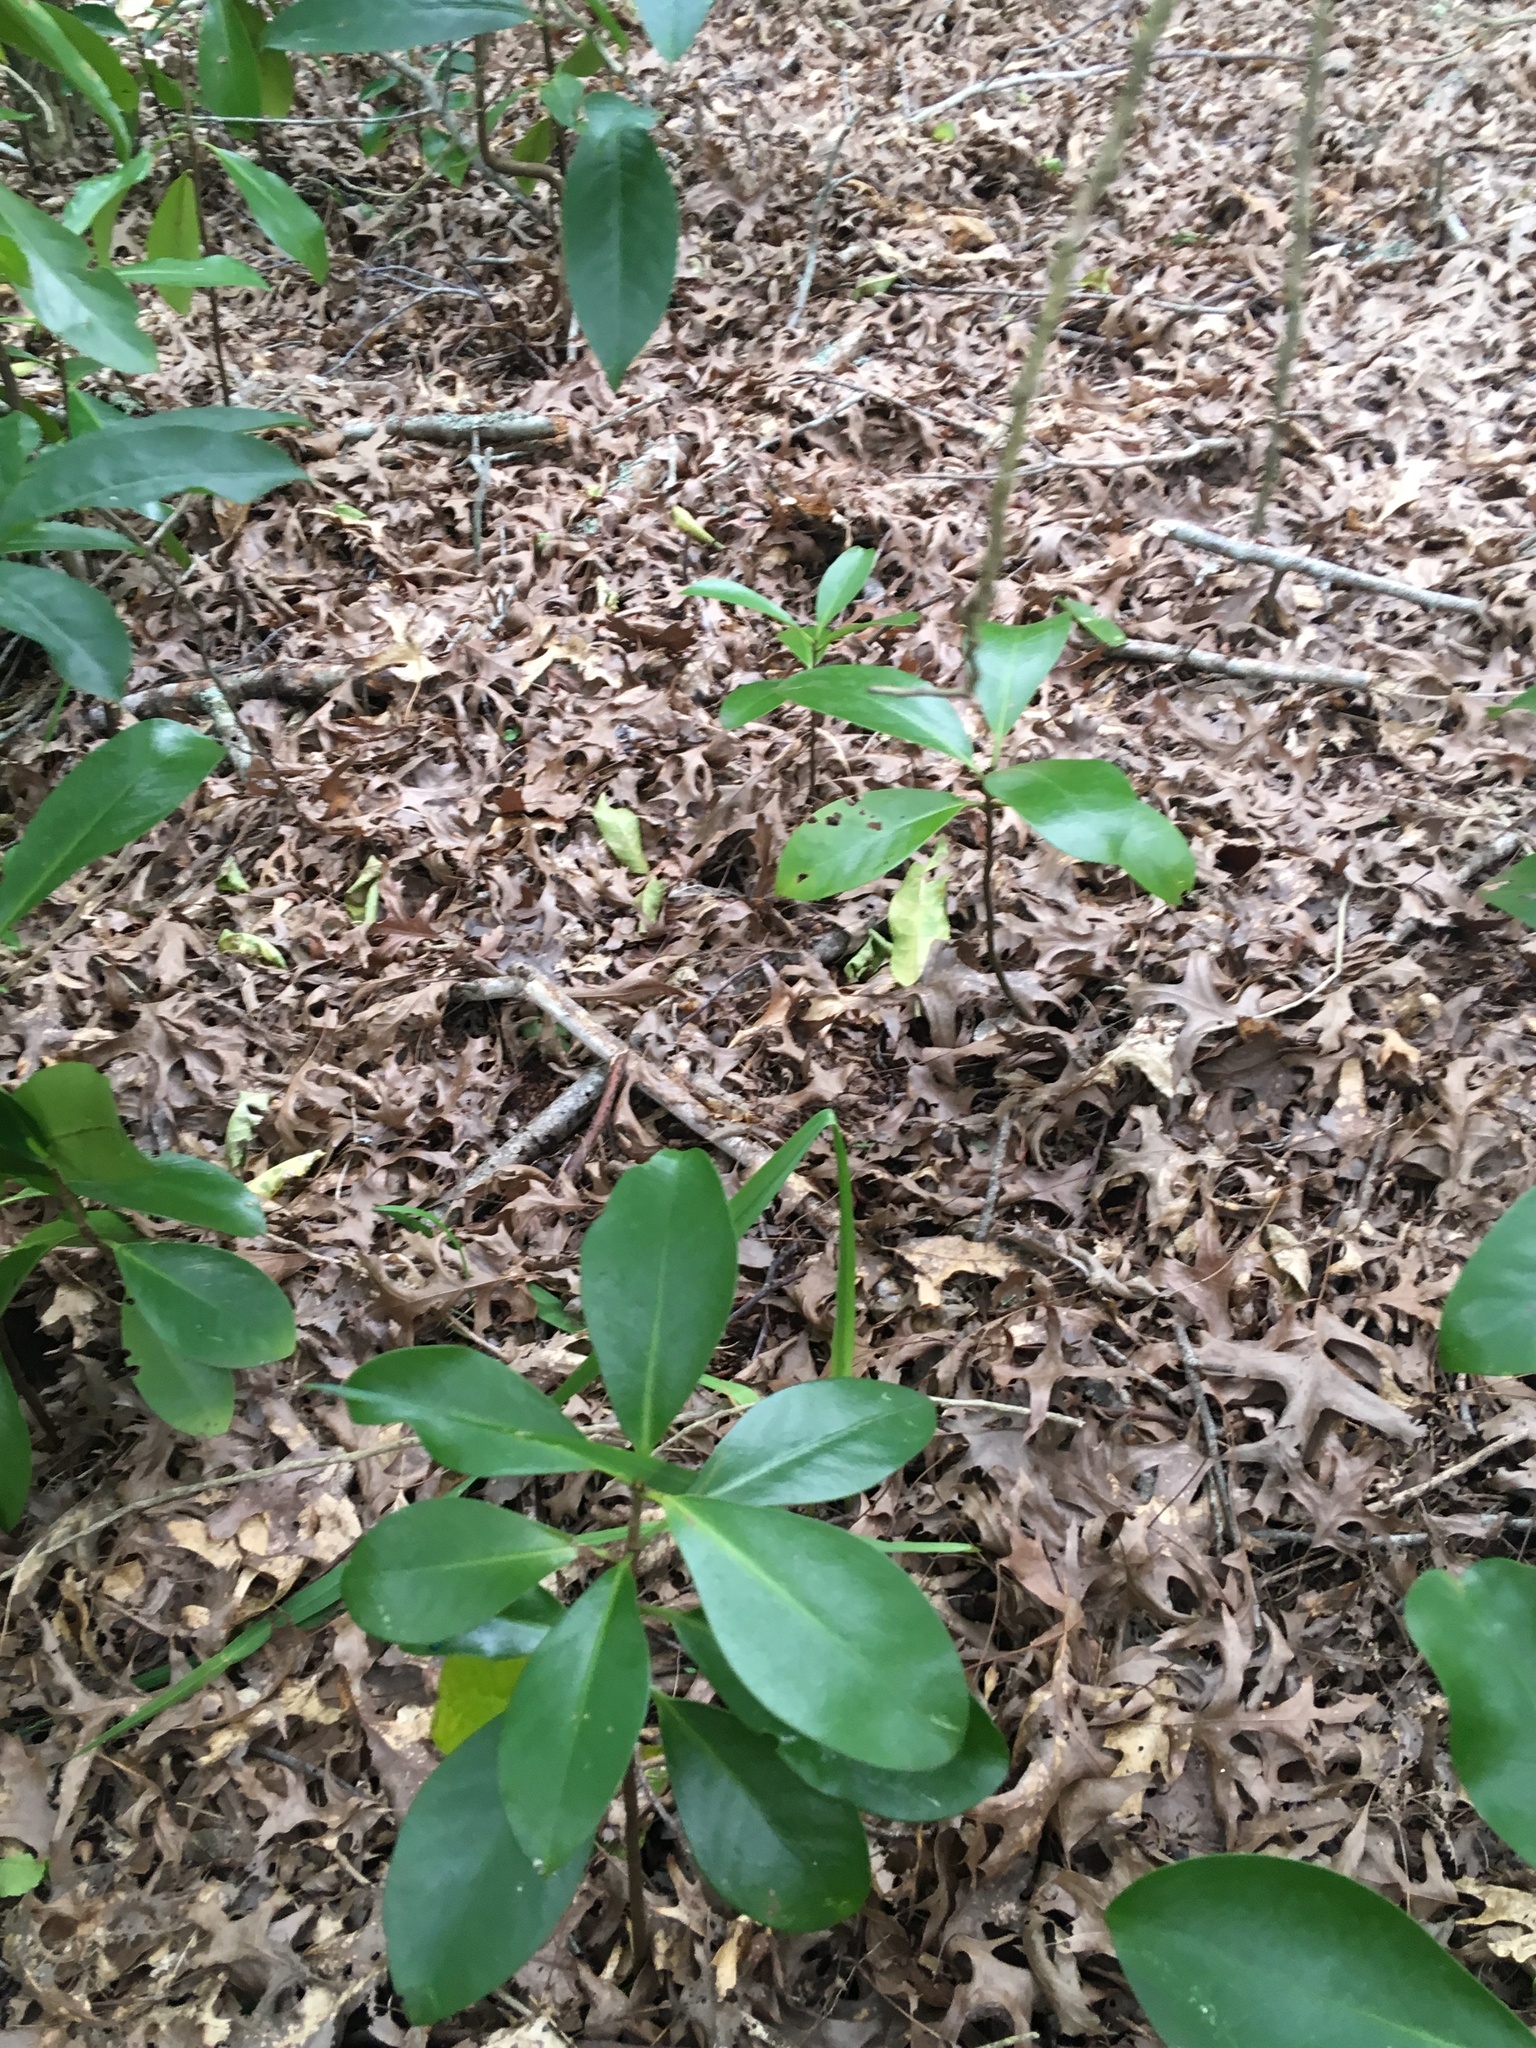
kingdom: Plantae
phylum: Tracheophyta
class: Magnoliopsida
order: Cucurbitales
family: Corynocarpaceae
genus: Corynocarpus
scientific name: Corynocarpus laevigatus
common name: New zealand laurel
